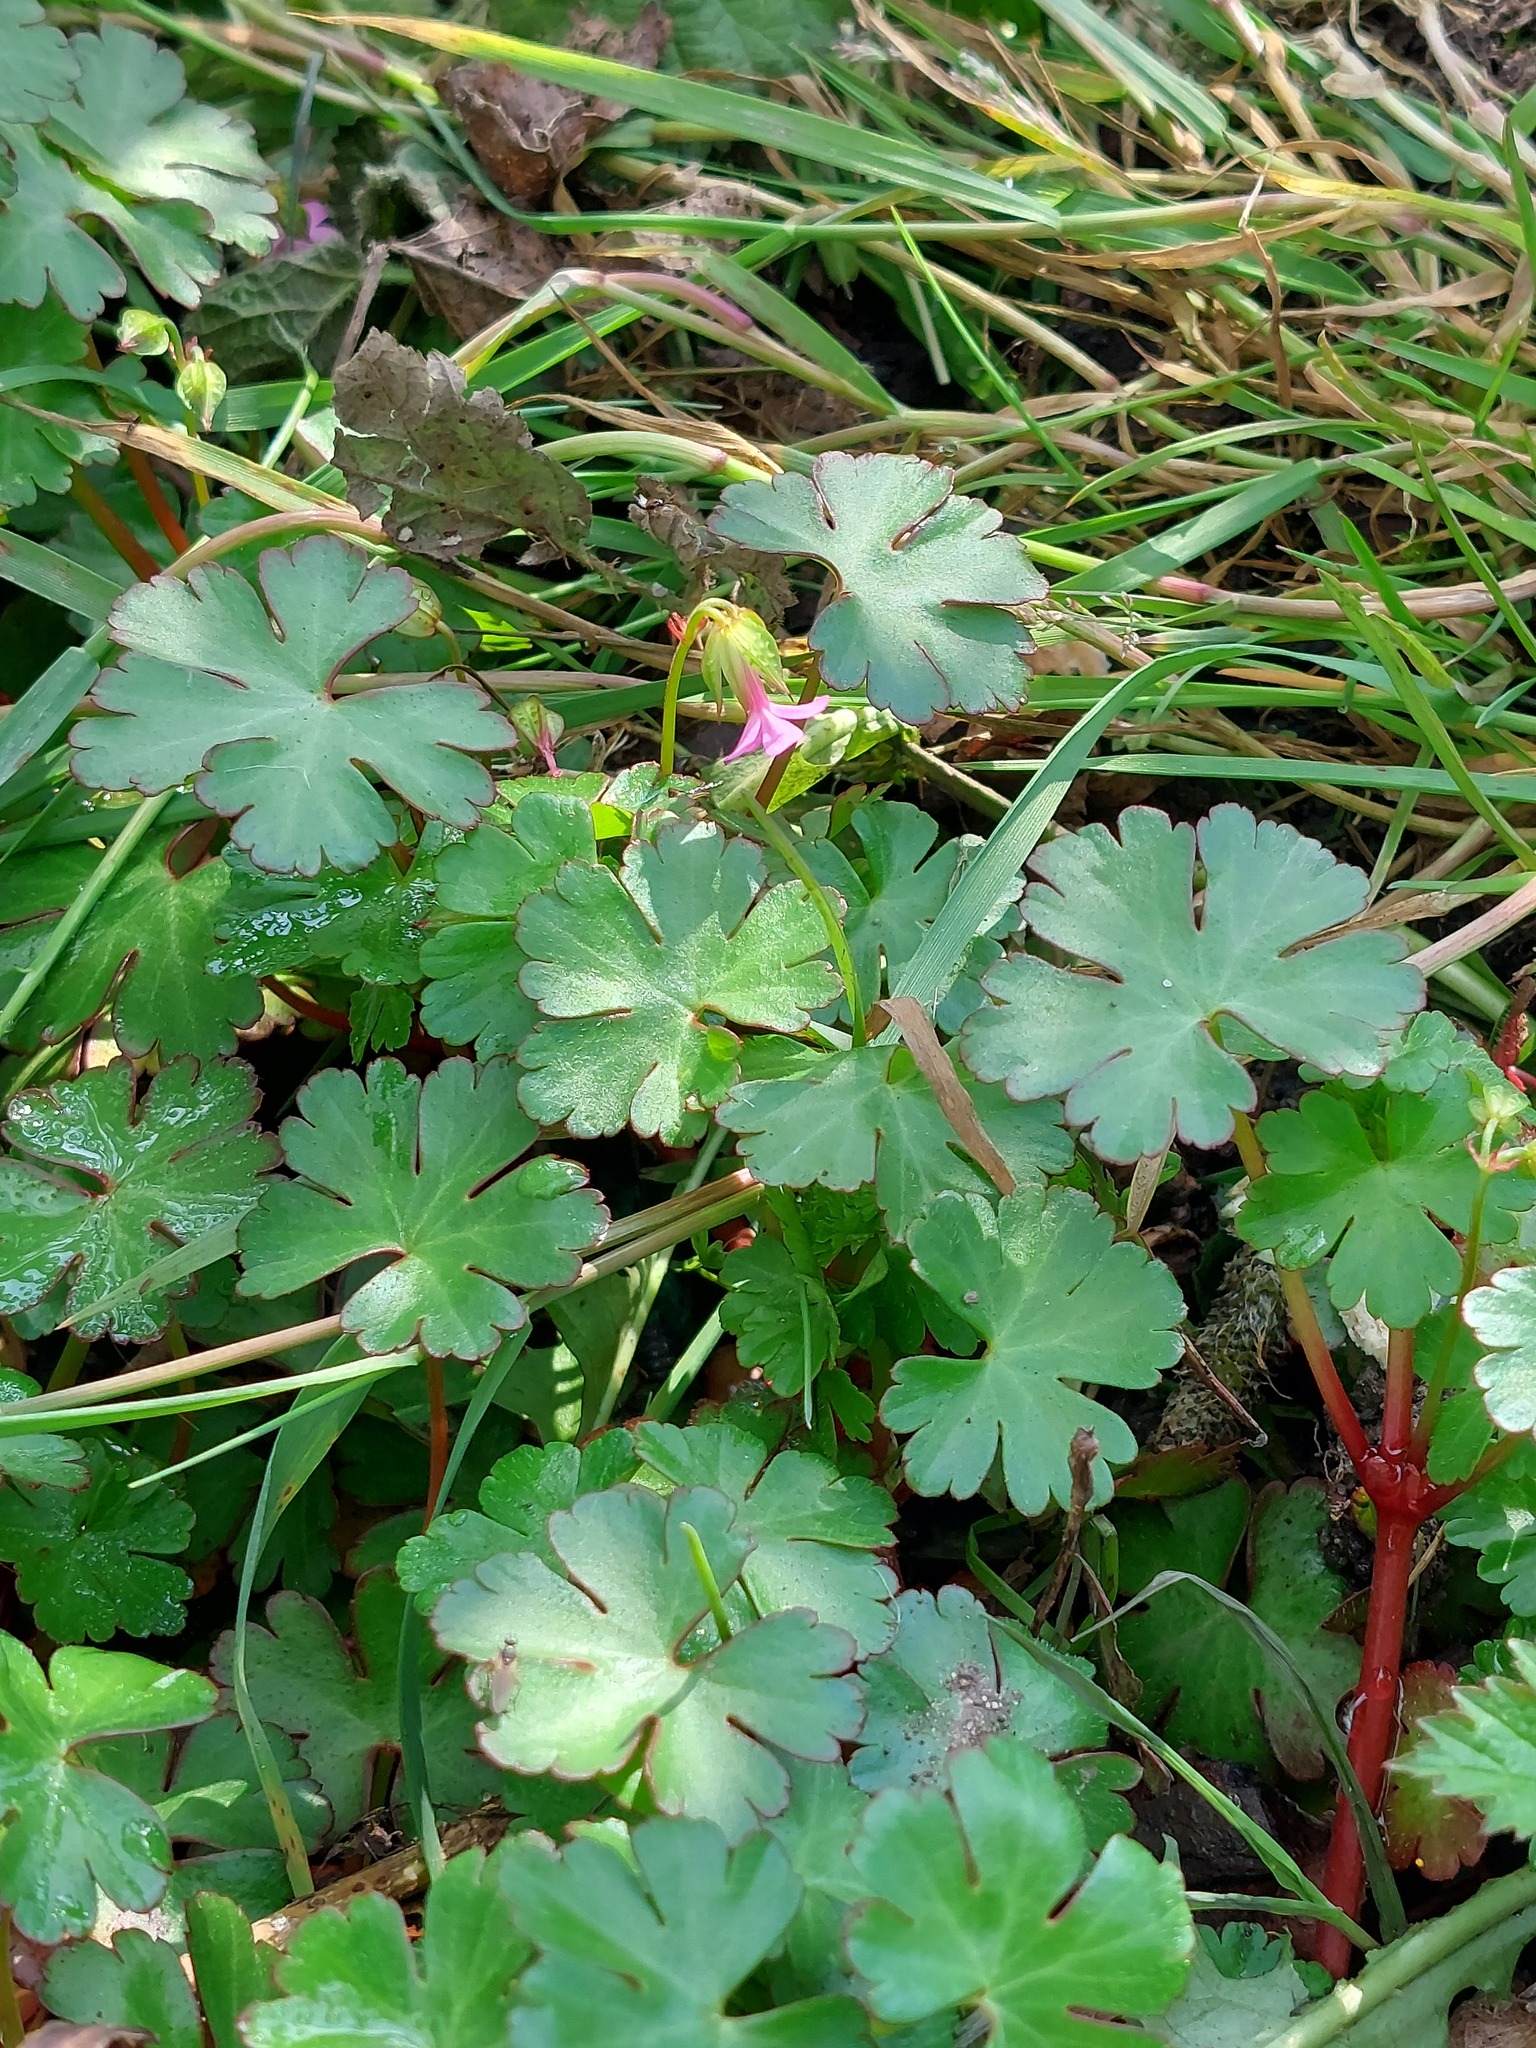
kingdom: Plantae
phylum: Tracheophyta
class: Magnoliopsida
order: Geraniales
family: Geraniaceae
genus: Geranium
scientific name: Geranium lucidum
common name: Shining crane's-bill
